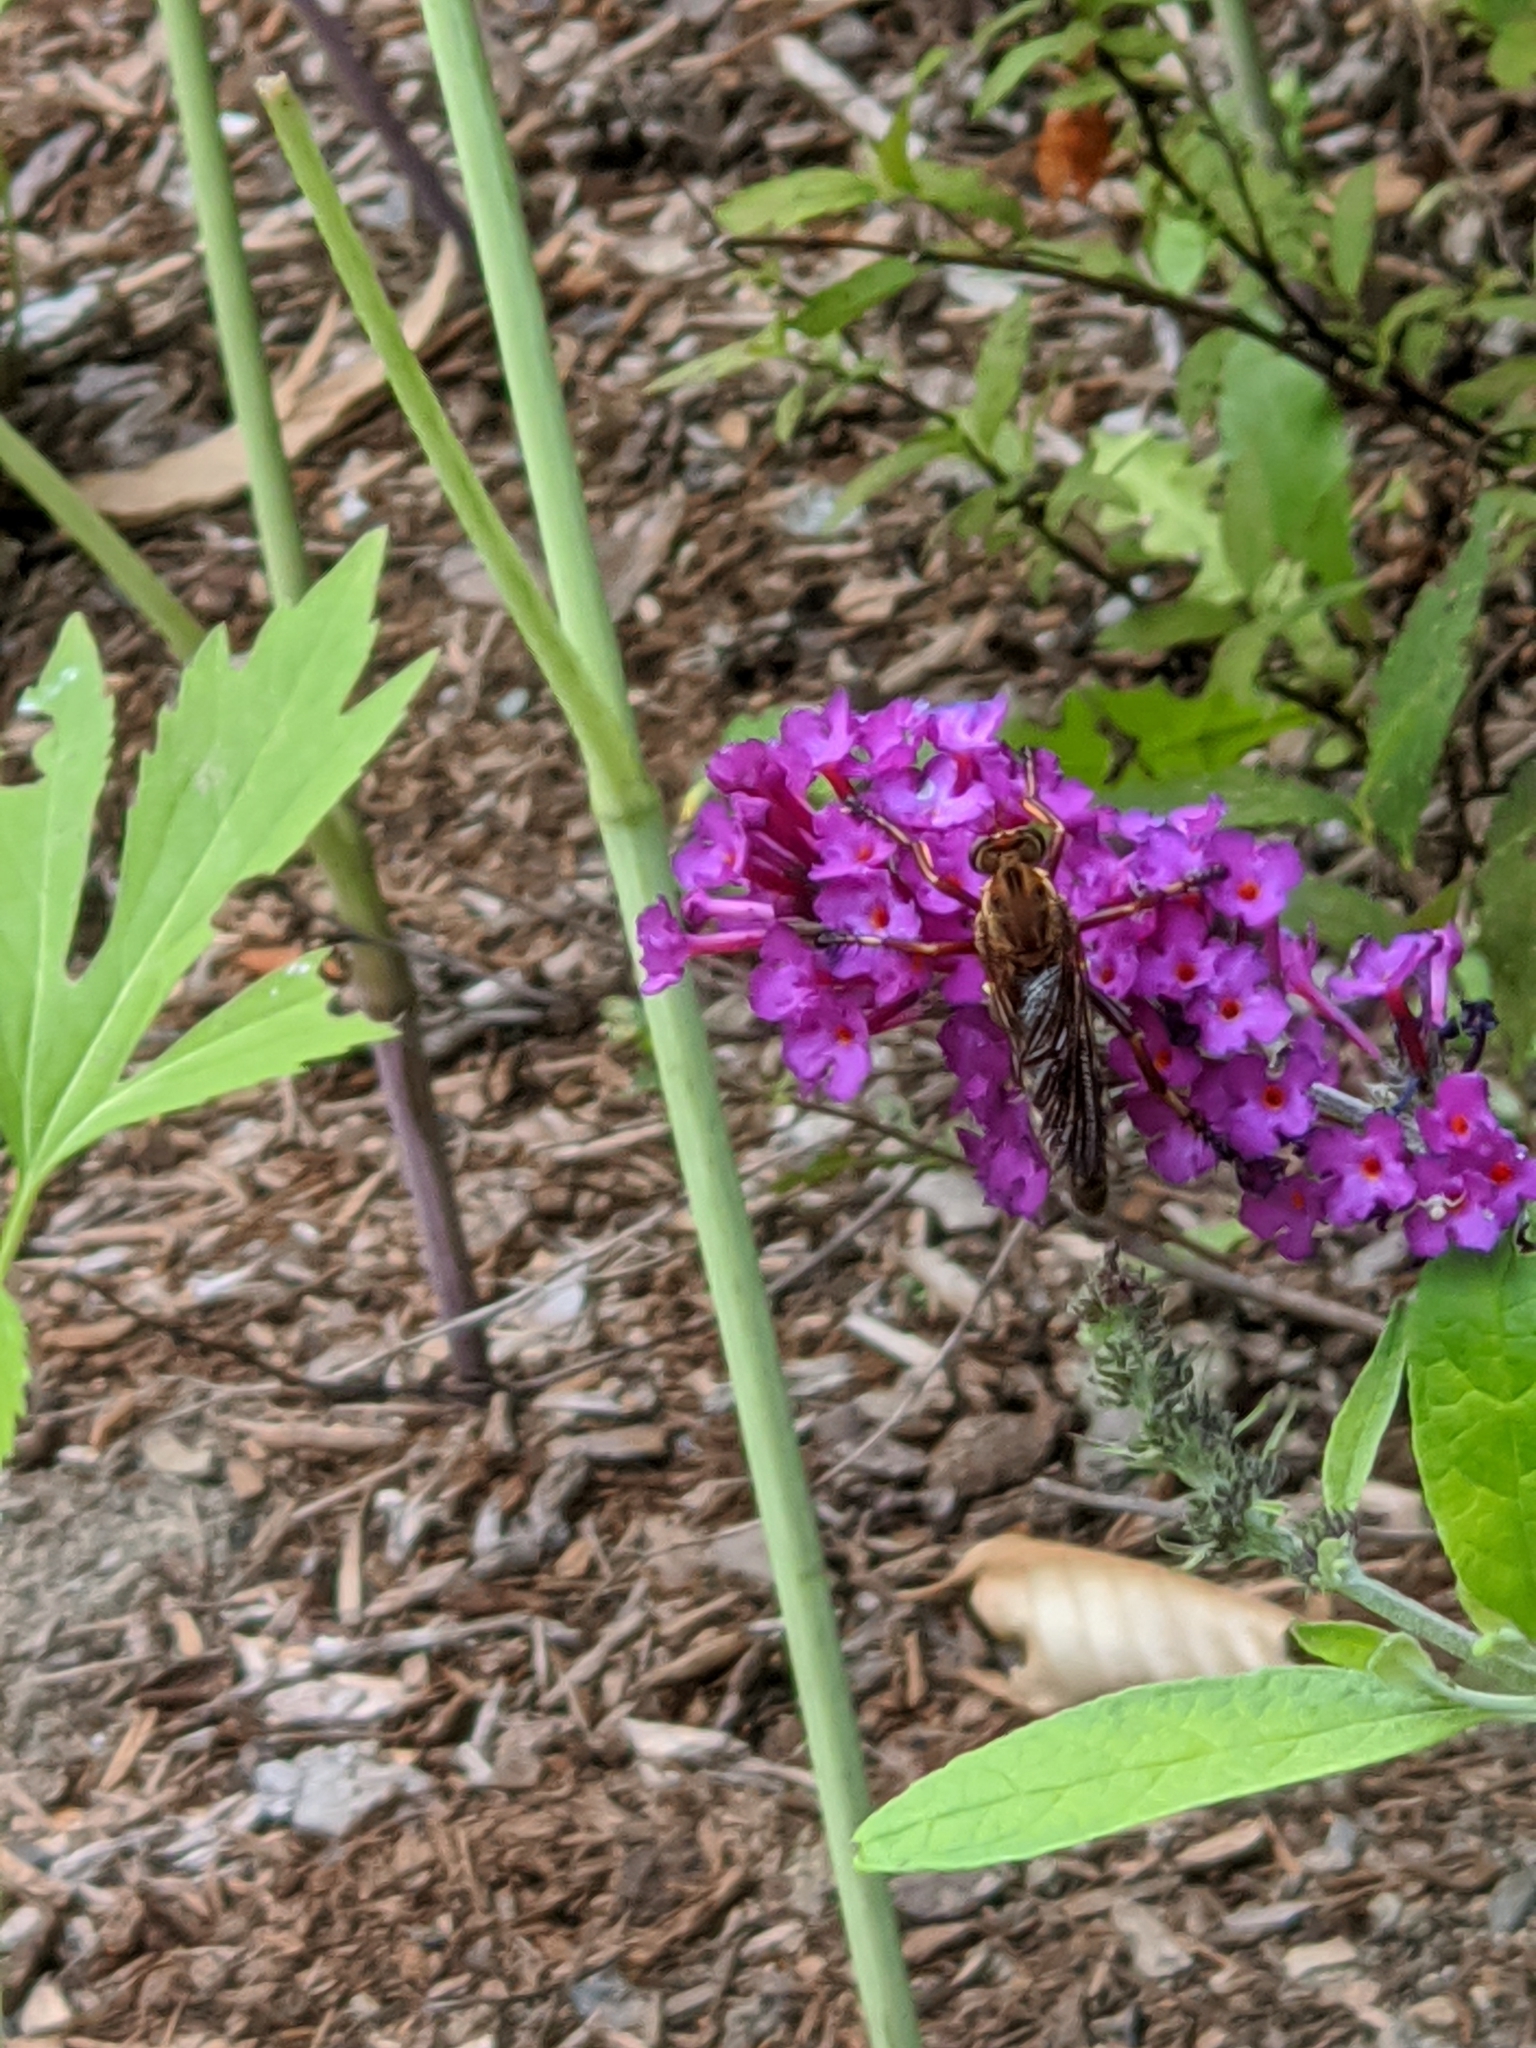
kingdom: Animalia
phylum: Arthropoda
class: Insecta
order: Diptera
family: Asilidae
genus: Diogmites
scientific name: Diogmites basalis
